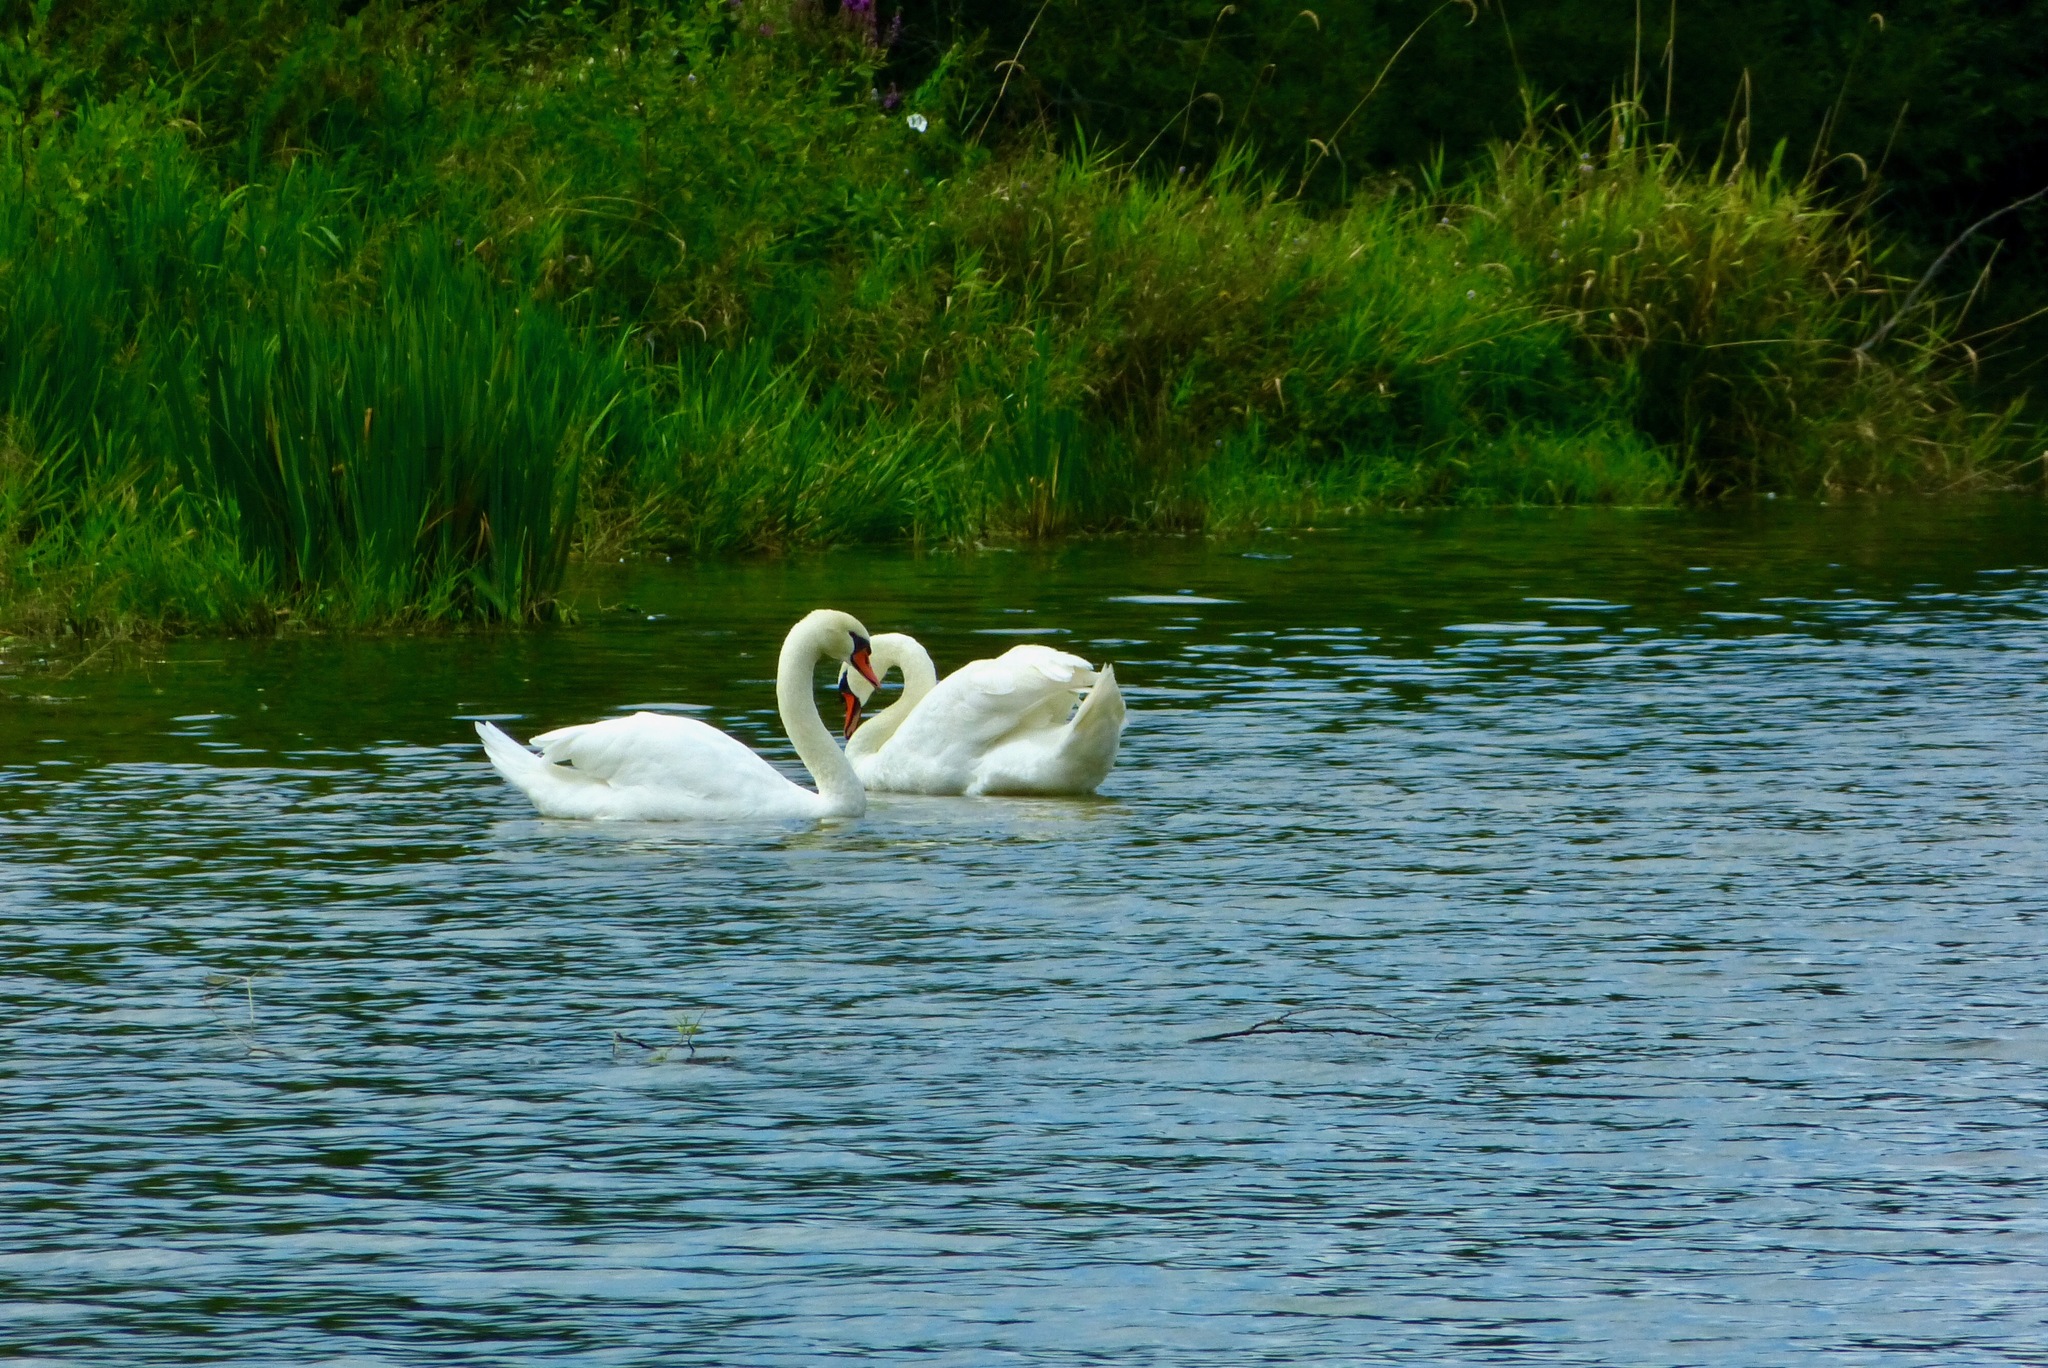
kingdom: Animalia
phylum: Chordata
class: Aves
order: Anseriformes
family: Anatidae
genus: Cygnus
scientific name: Cygnus olor
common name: Mute swan
